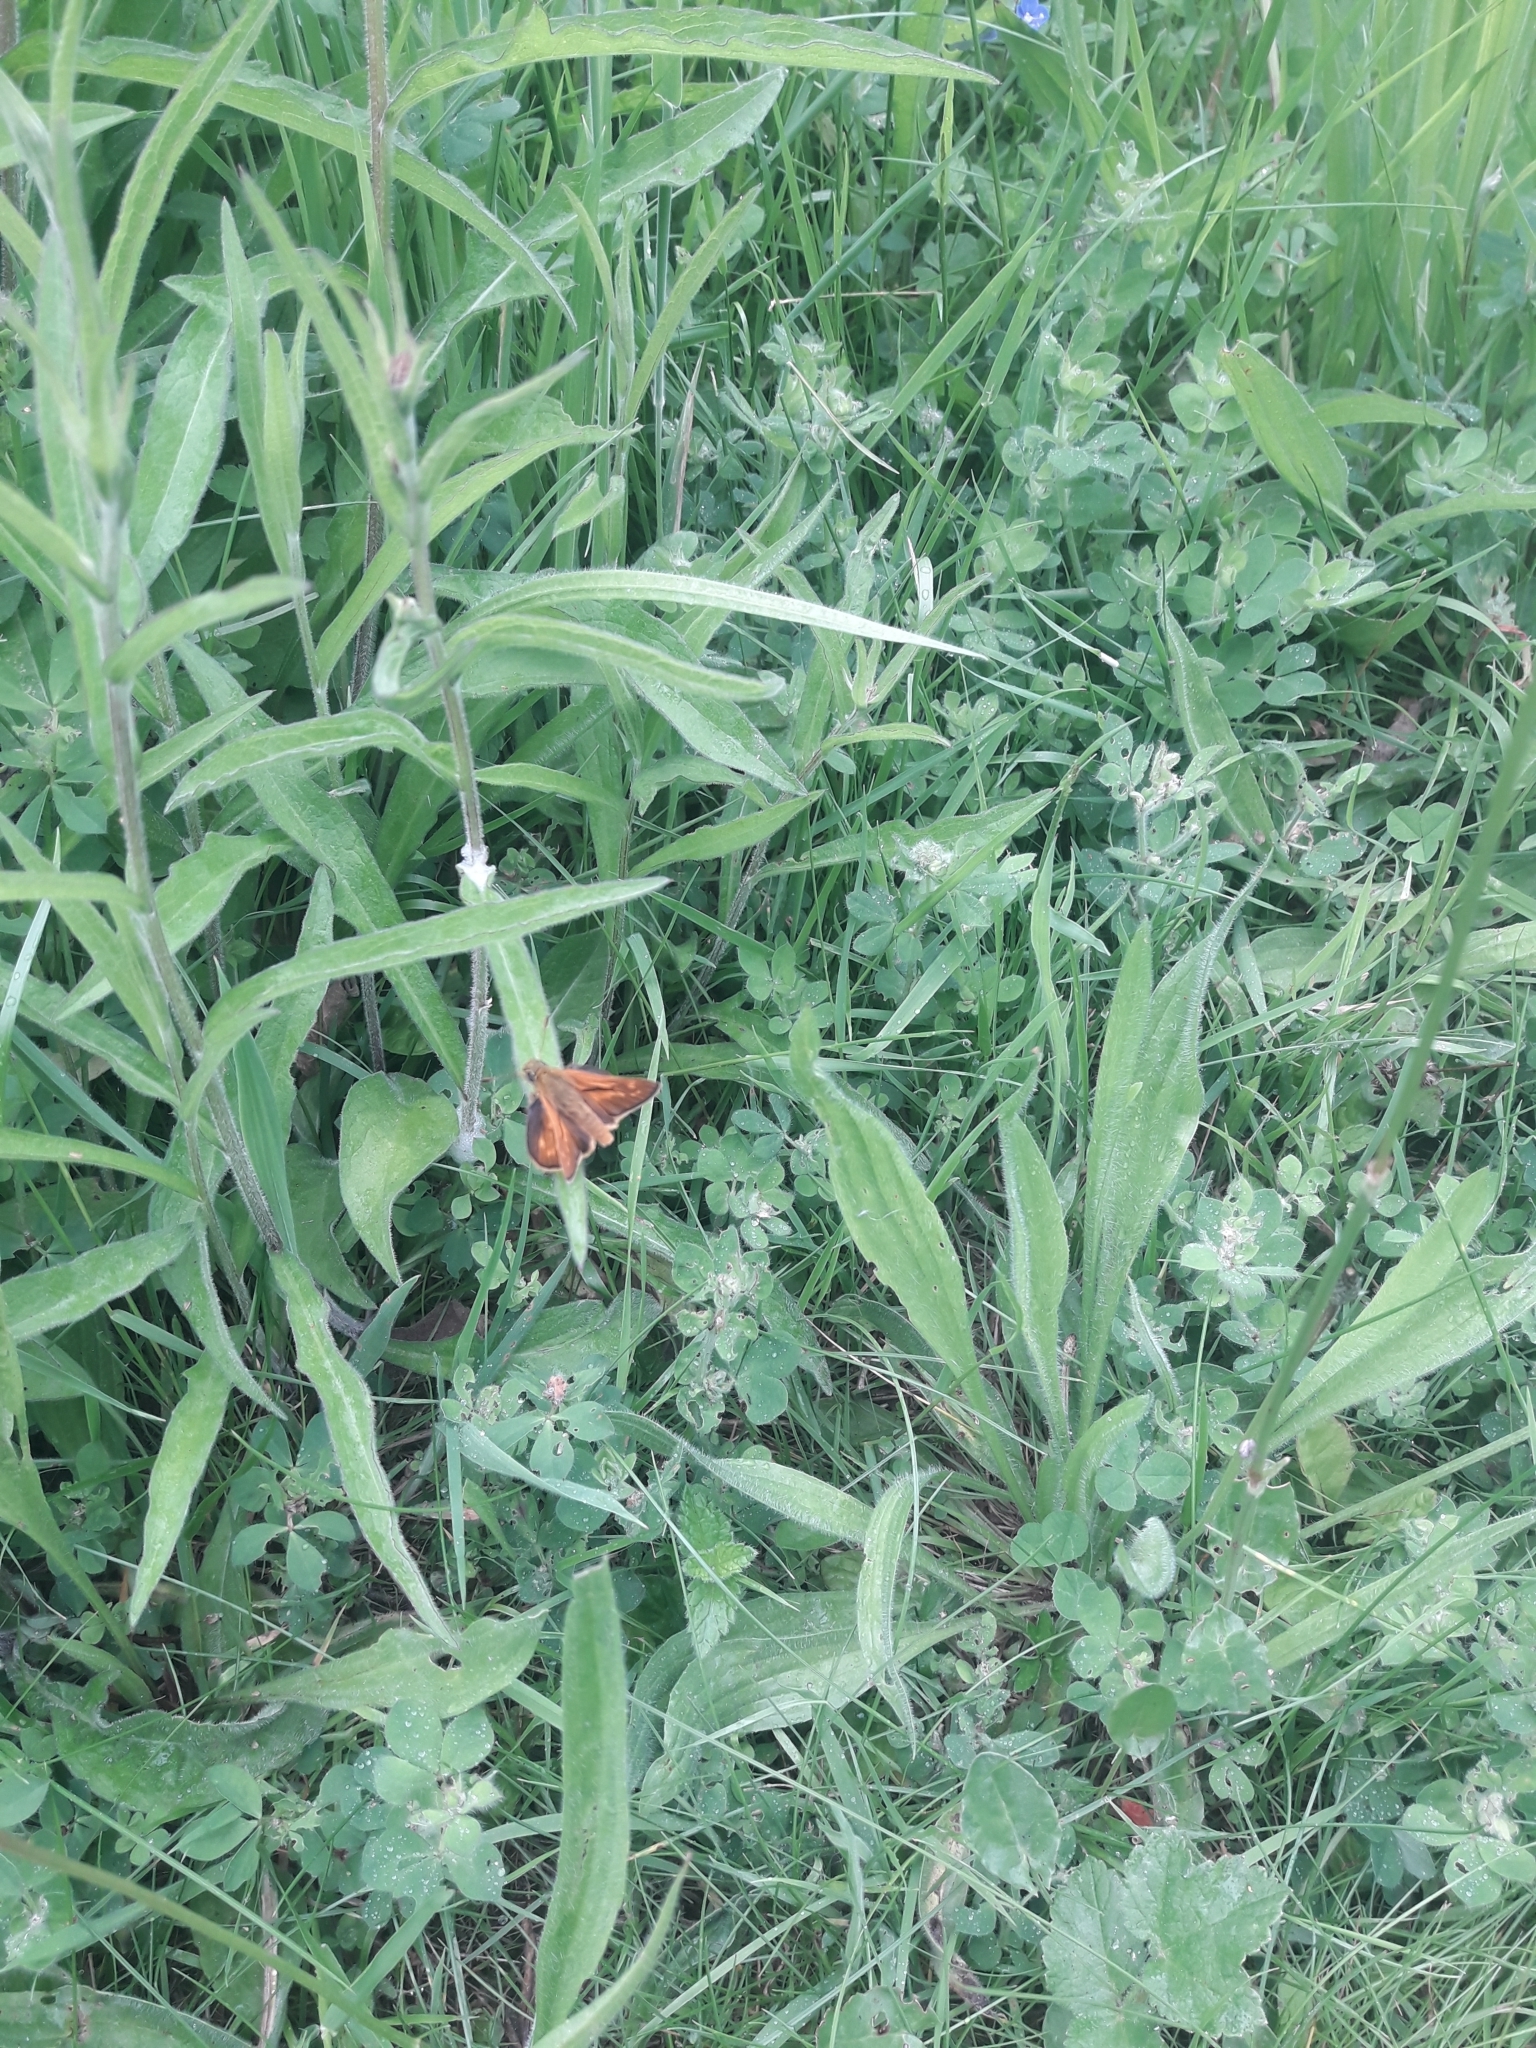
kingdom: Animalia
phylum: Arthropoda
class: Insecta
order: Lepidoptera
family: Hesperiidae
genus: Ochlodes
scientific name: Ochlodes venata
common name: Large skipper
